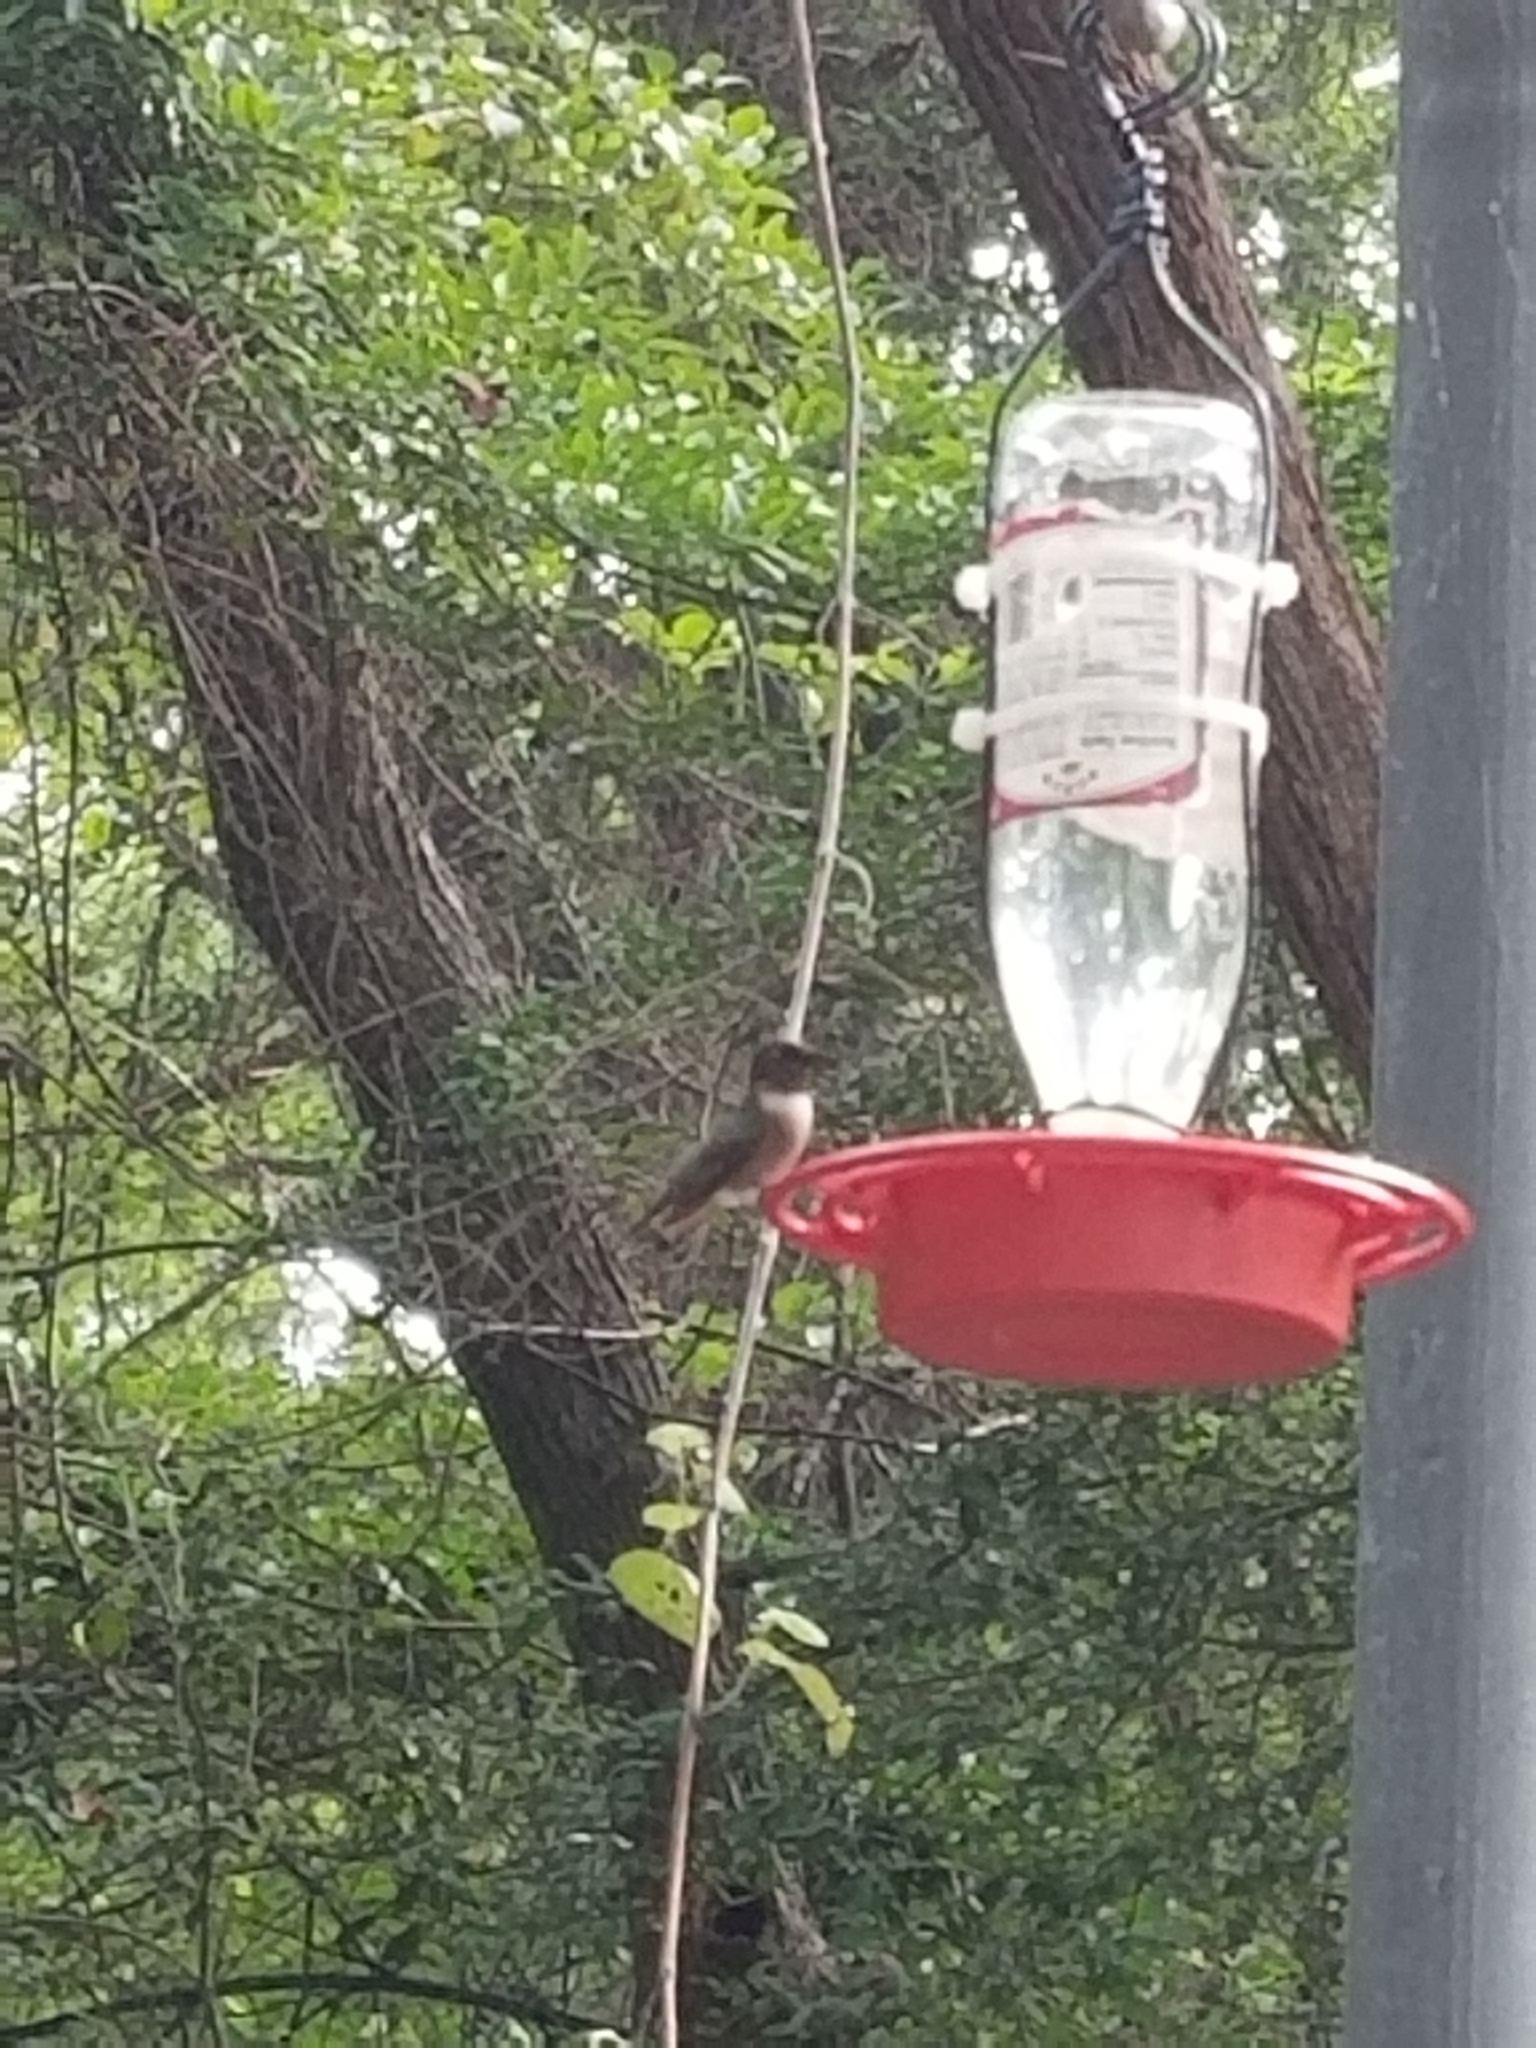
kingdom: Animalia
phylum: Chordata
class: Aves
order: Apodiformes
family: Trochilidae
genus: Archilochus
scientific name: Archilochus colubris
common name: Ruby-throated hummingbird
